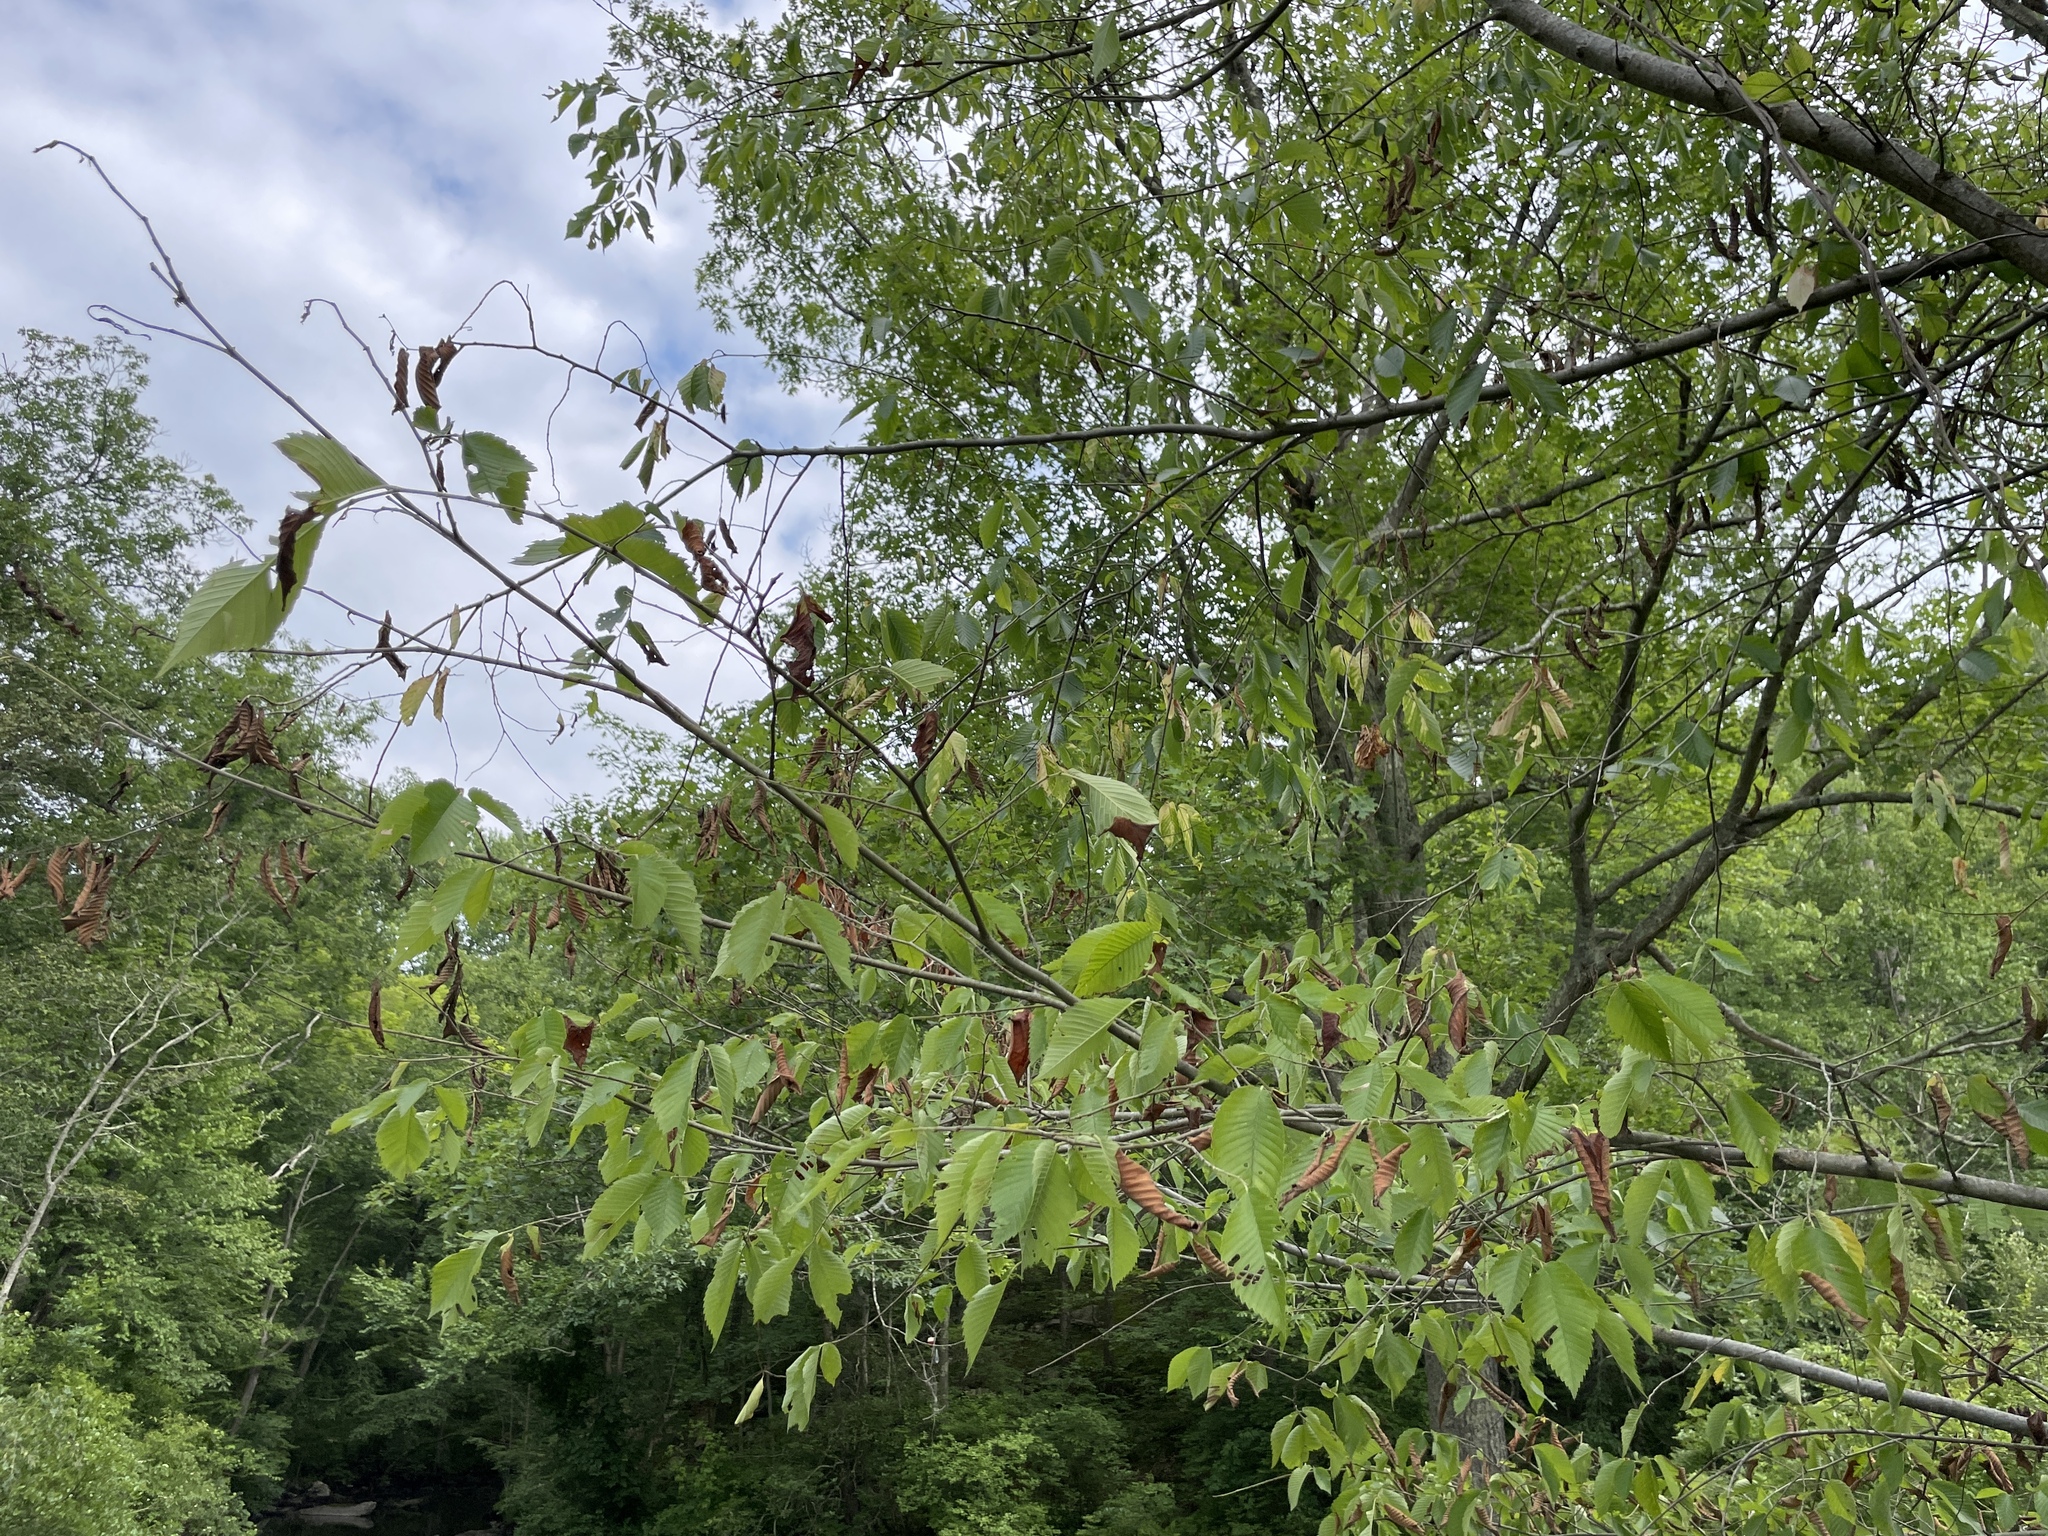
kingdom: Plantae
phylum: Tracheophyta
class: Magnoliopsida
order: Rosales
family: Ulmaceae
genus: Ulmus
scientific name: Ulmus americana
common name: American elm
